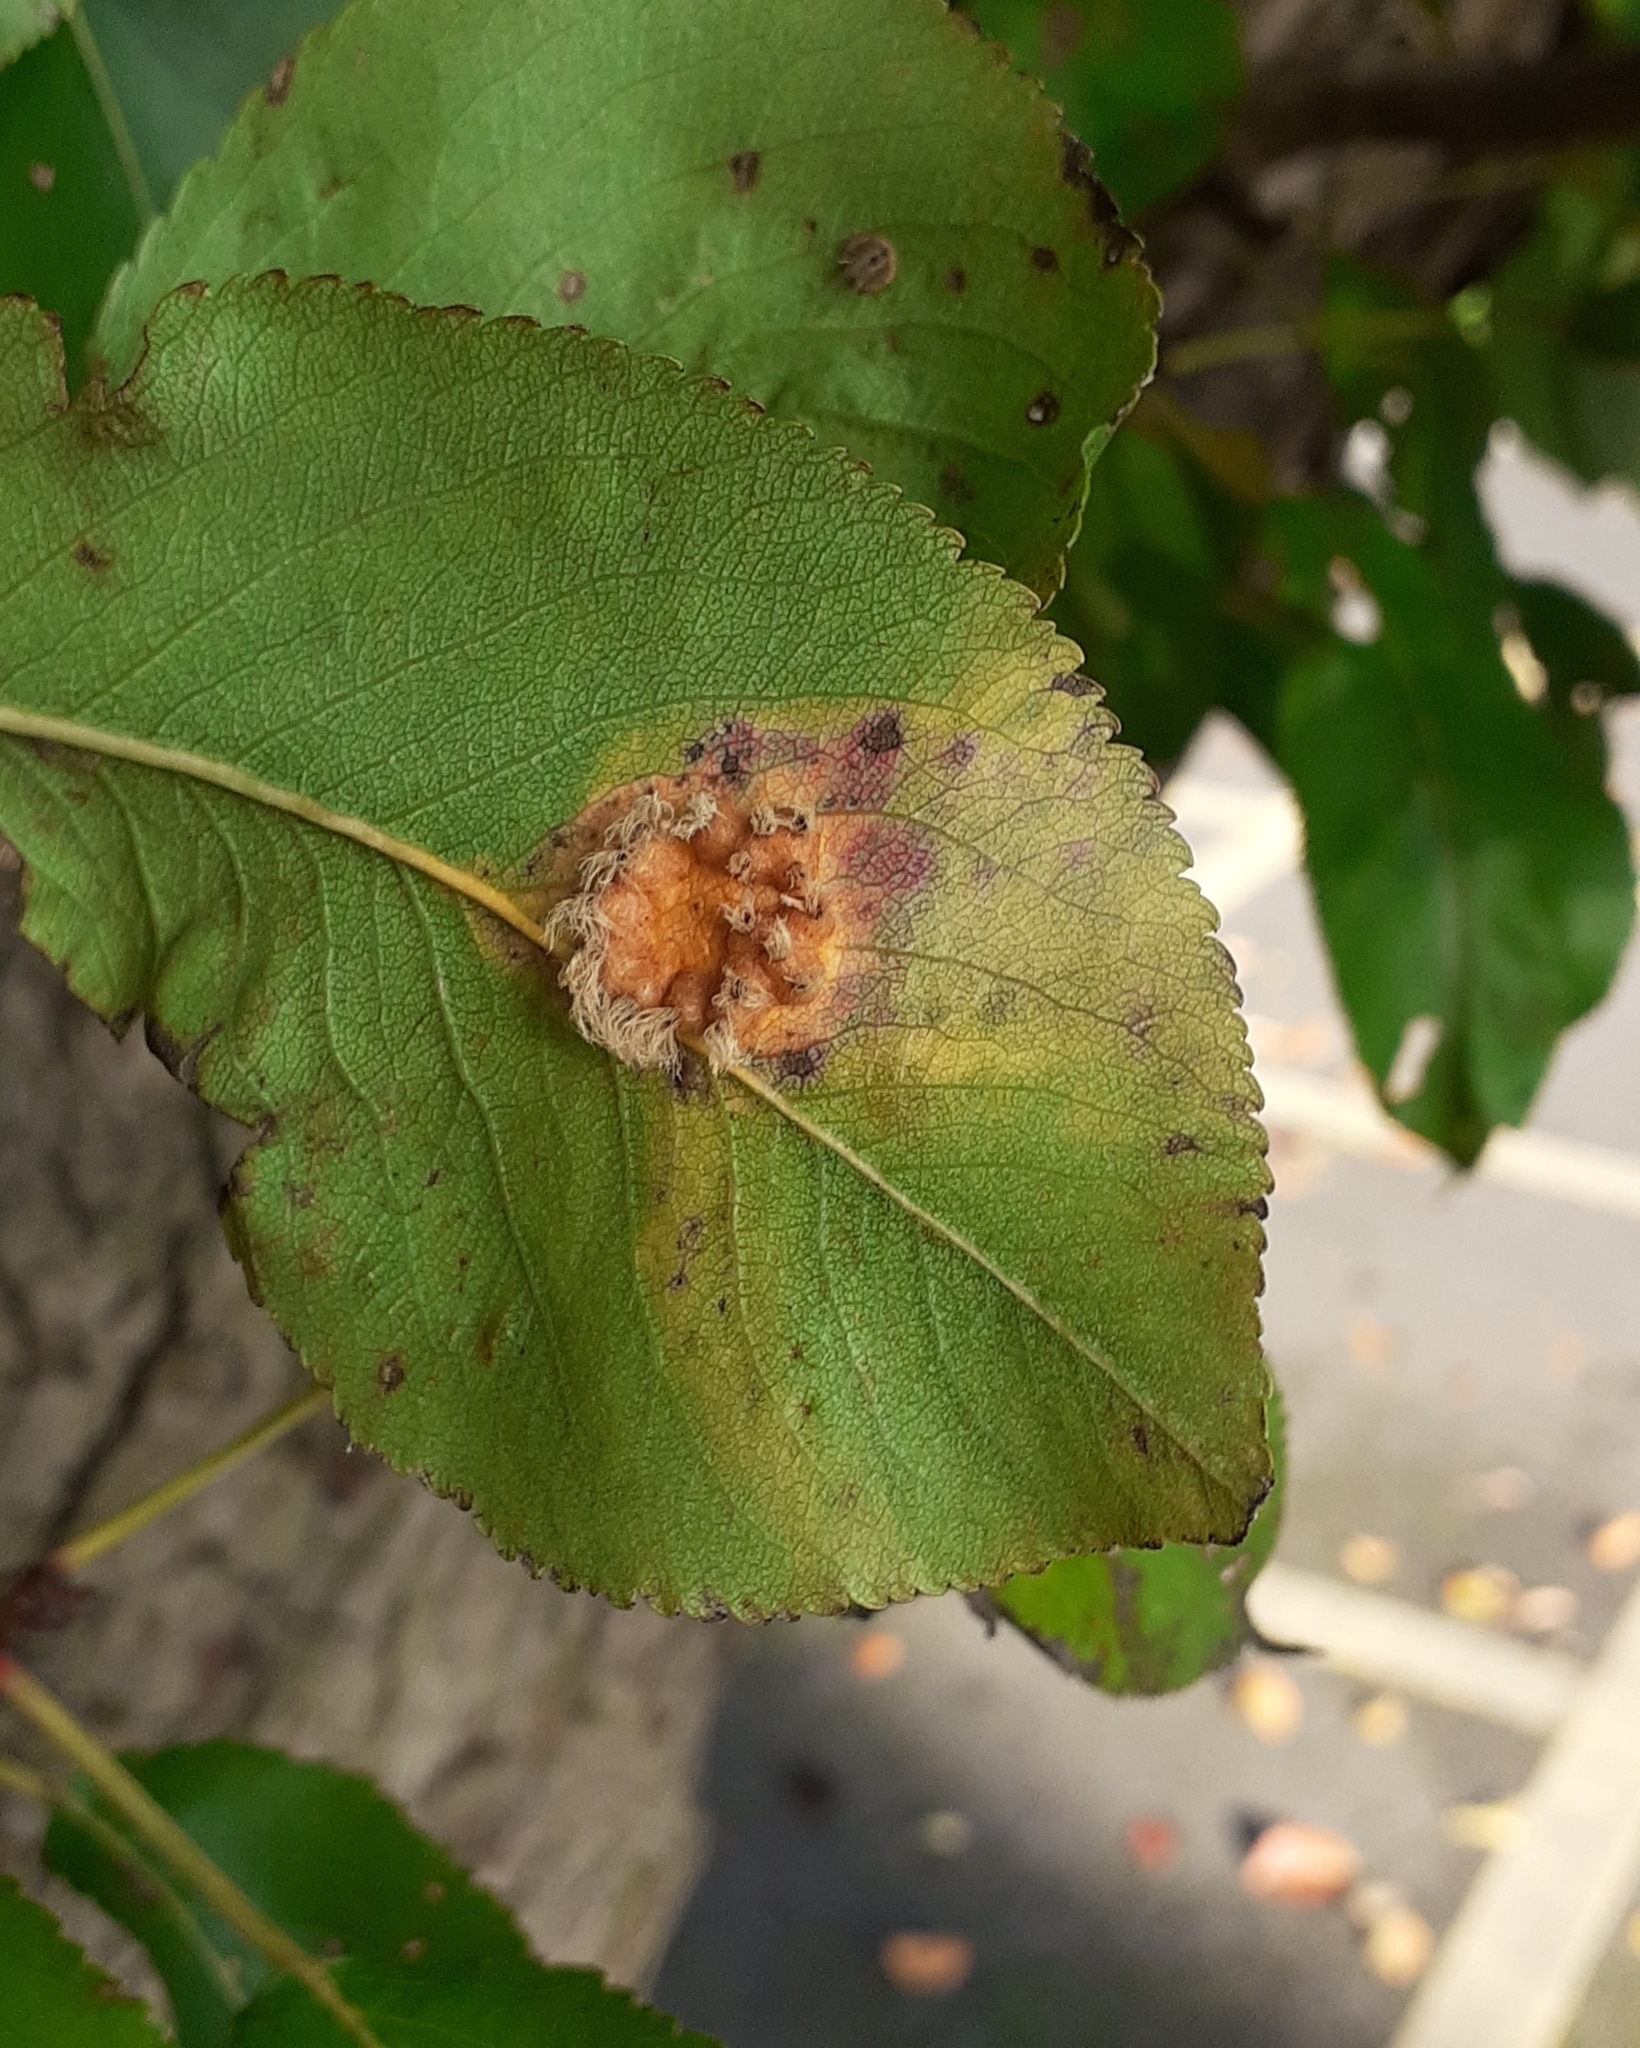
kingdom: Fungi
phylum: Basidiomycota
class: Pucciniomycetes
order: Pucciniales
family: Gymnosporangiaceae
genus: Gymnosporangium
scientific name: Gymnosporangium sabinae
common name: Pear trellis rust fungus
